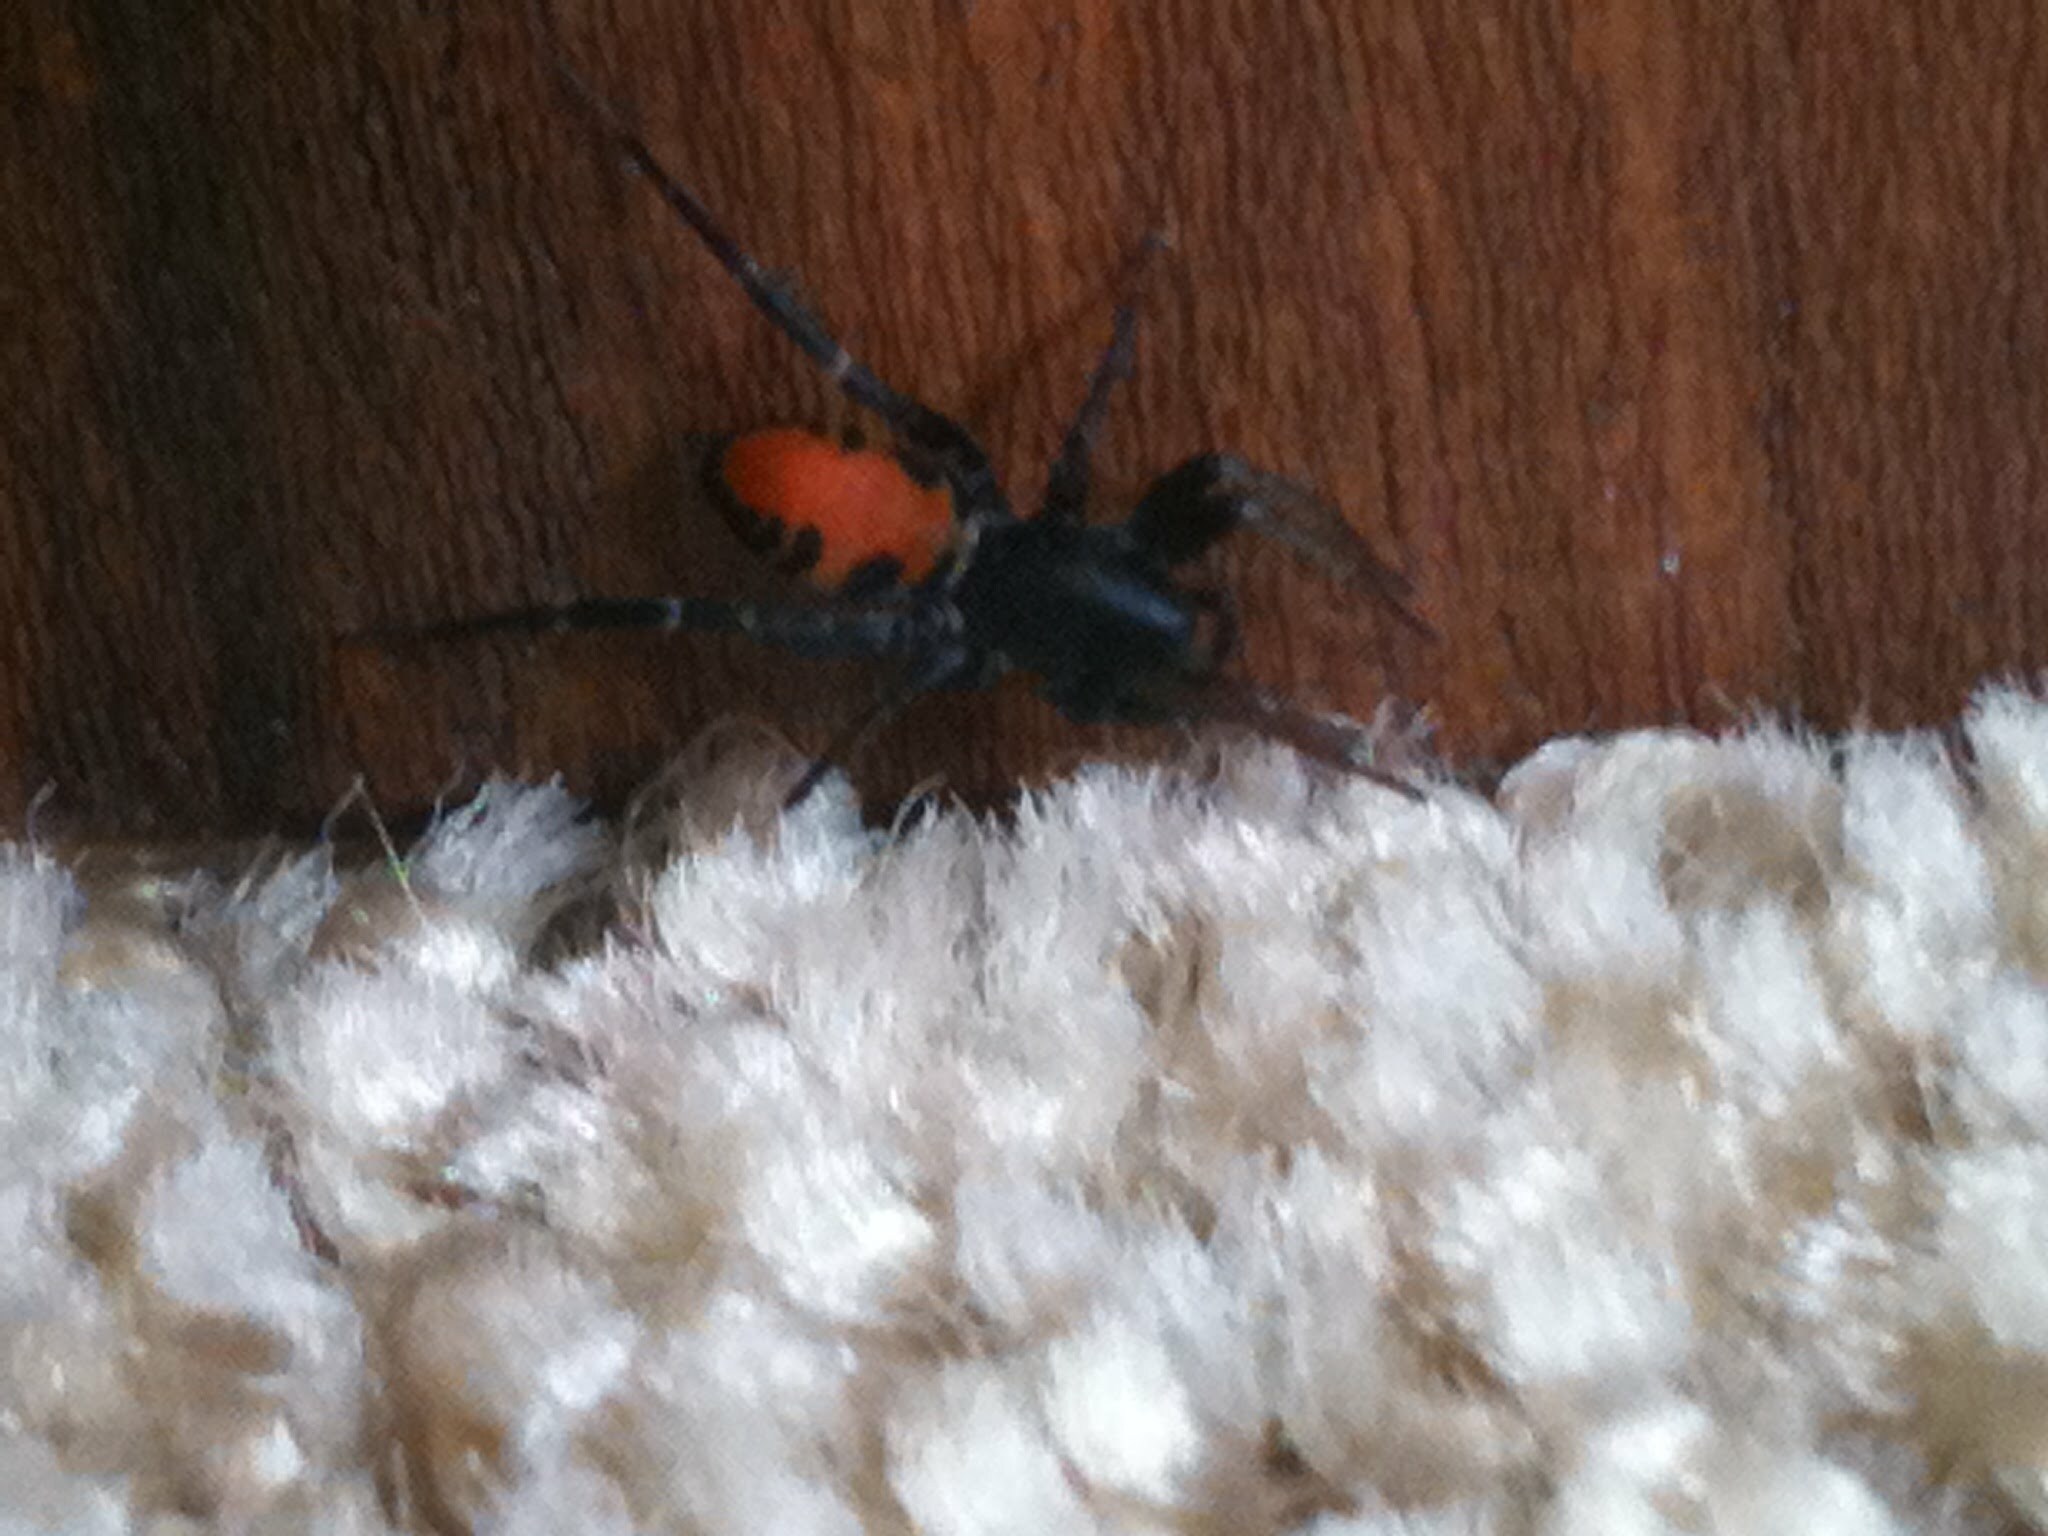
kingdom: Animalia
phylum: Arthropoda
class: Arachnida
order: Araneae
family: Corinnidae
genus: Castianeira
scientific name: Castianeira
